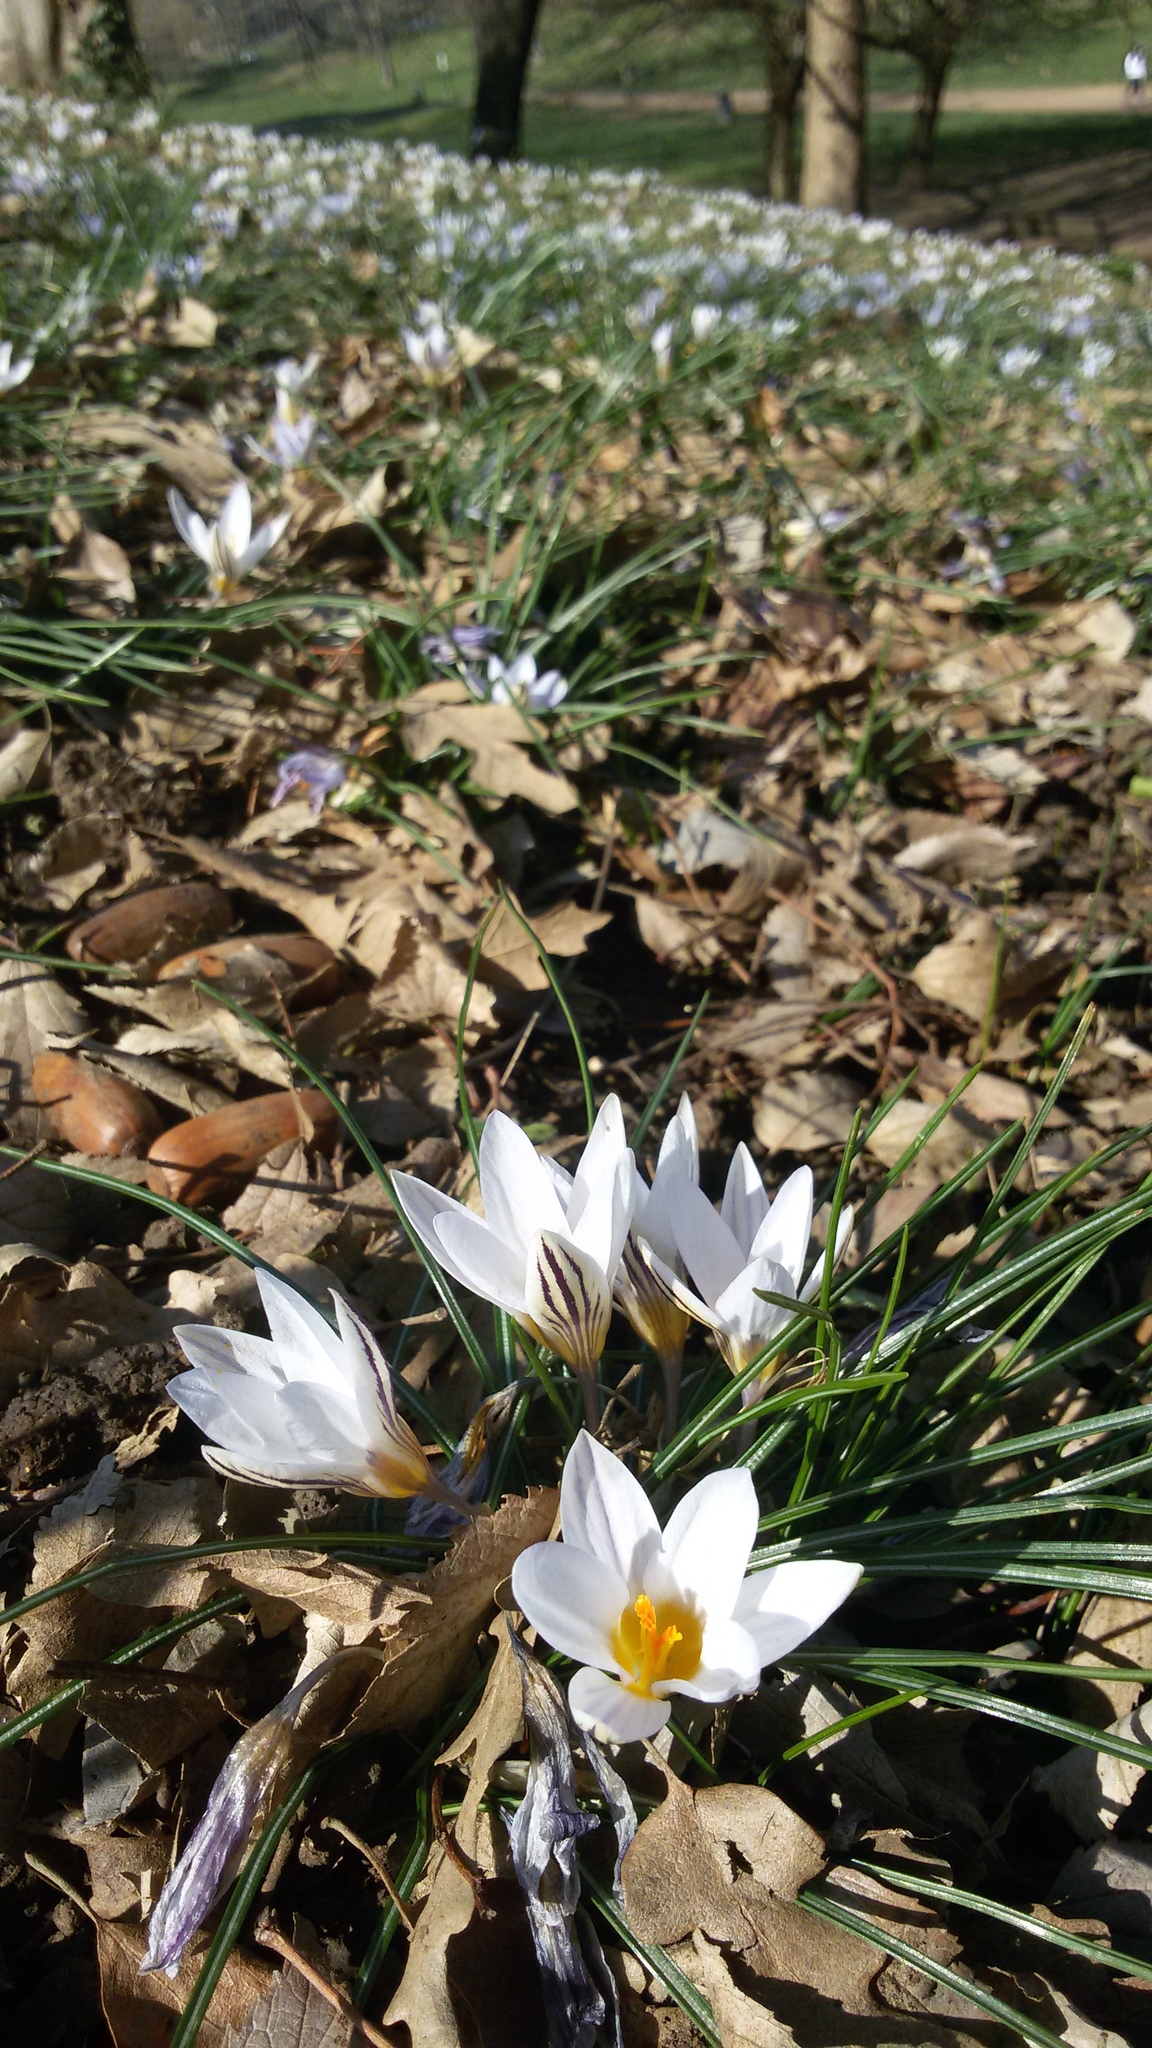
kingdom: Plantae
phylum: Tracheophyta
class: Liliopsida
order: Asparagales
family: Iridaceae
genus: Crocus
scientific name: Crocus biflorus
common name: Silvery crocus
